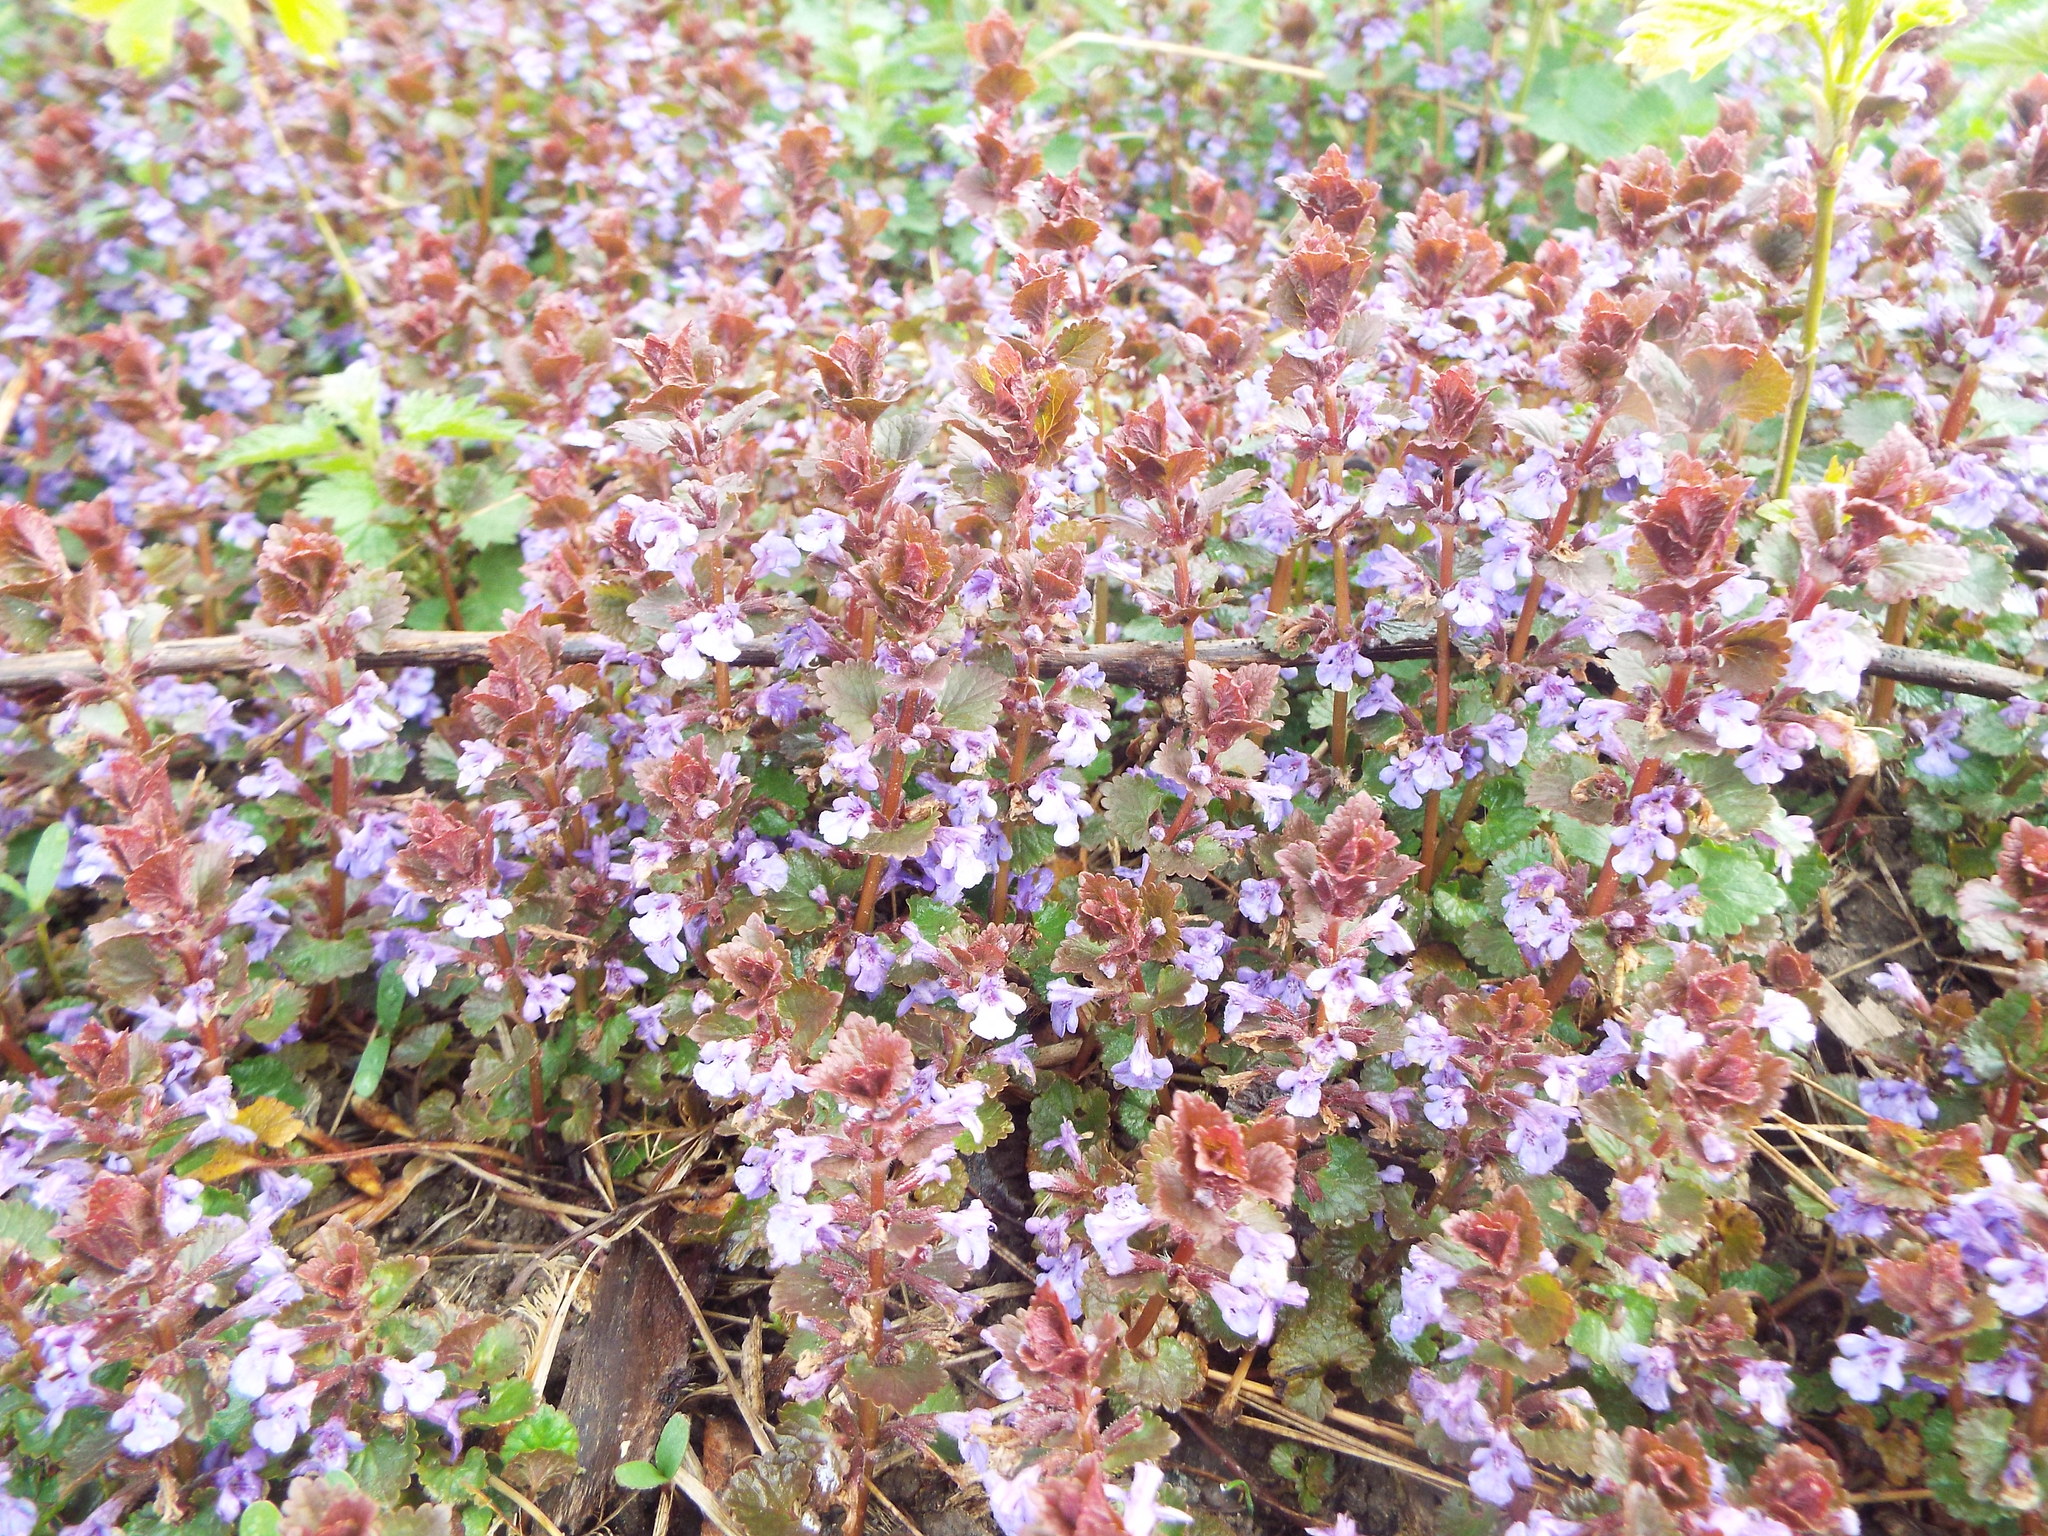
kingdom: Plantae
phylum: Tracheophyta
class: Magnoliopsida
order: Lamiales
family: Lamiaceae
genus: Glechoma
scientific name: Glechoma hederacea
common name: Ground ivy
